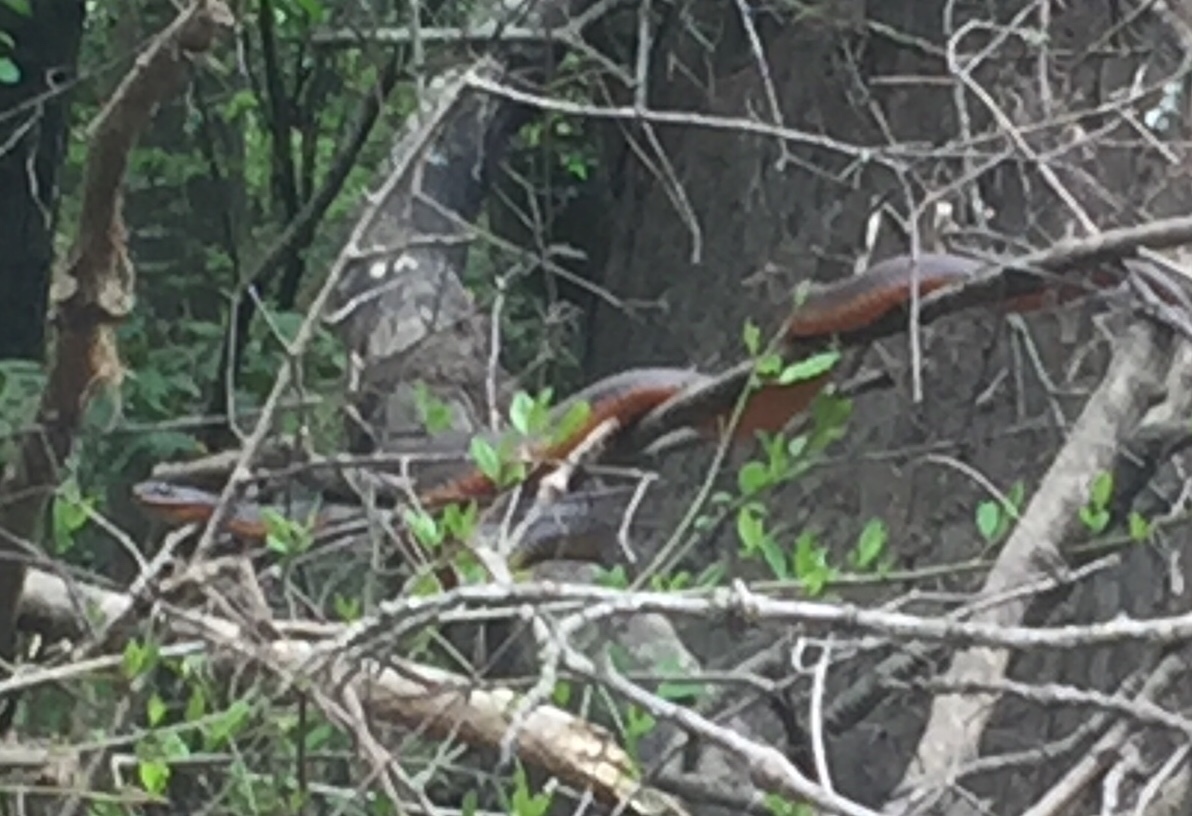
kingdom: Animalia
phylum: Chordata
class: Squamata
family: Colubridae
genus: Nerodia
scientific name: Nerodia erythrogaster
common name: Plainbelly water snake
